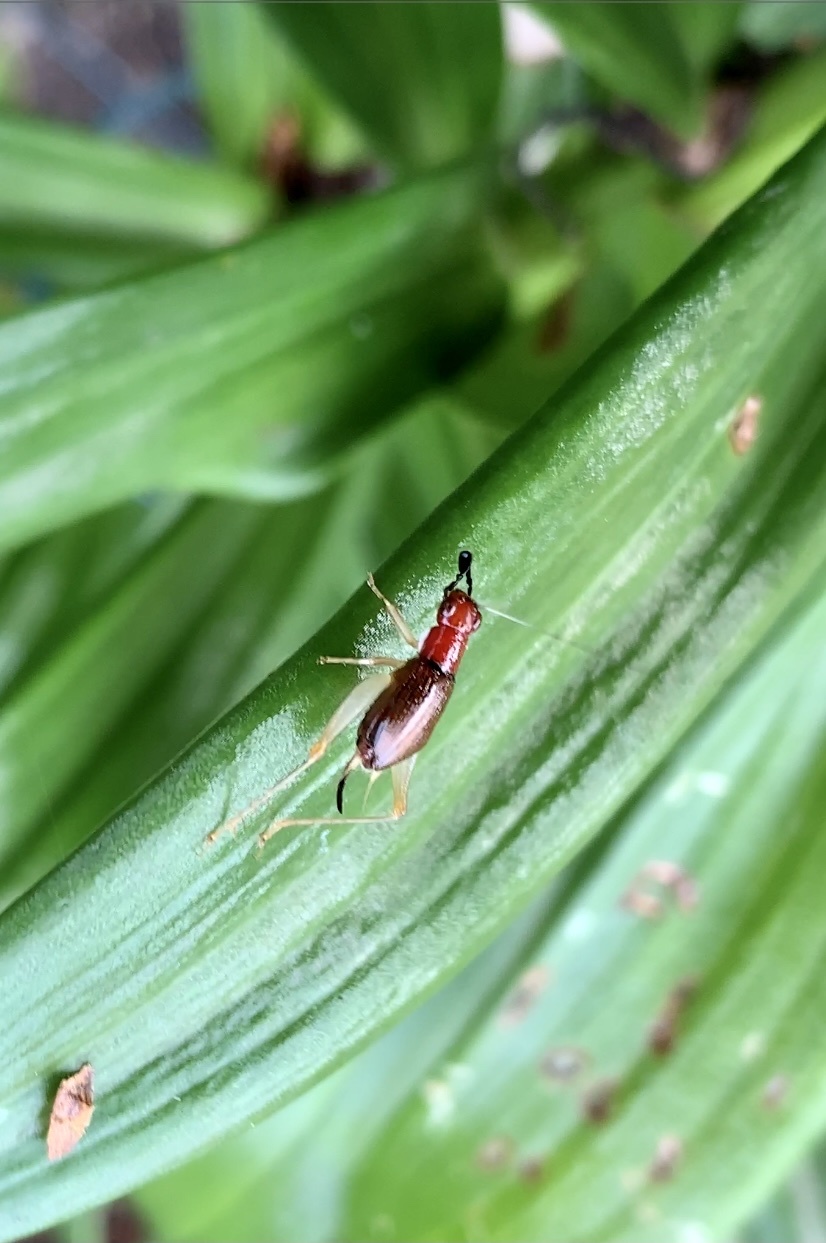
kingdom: Animalia
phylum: Arthropoda
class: Insecta
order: Orthoptera
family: Trigonidiidae
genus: Phyllopalpus
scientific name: Phyllopalpus pulchellus
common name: Handsome trig
